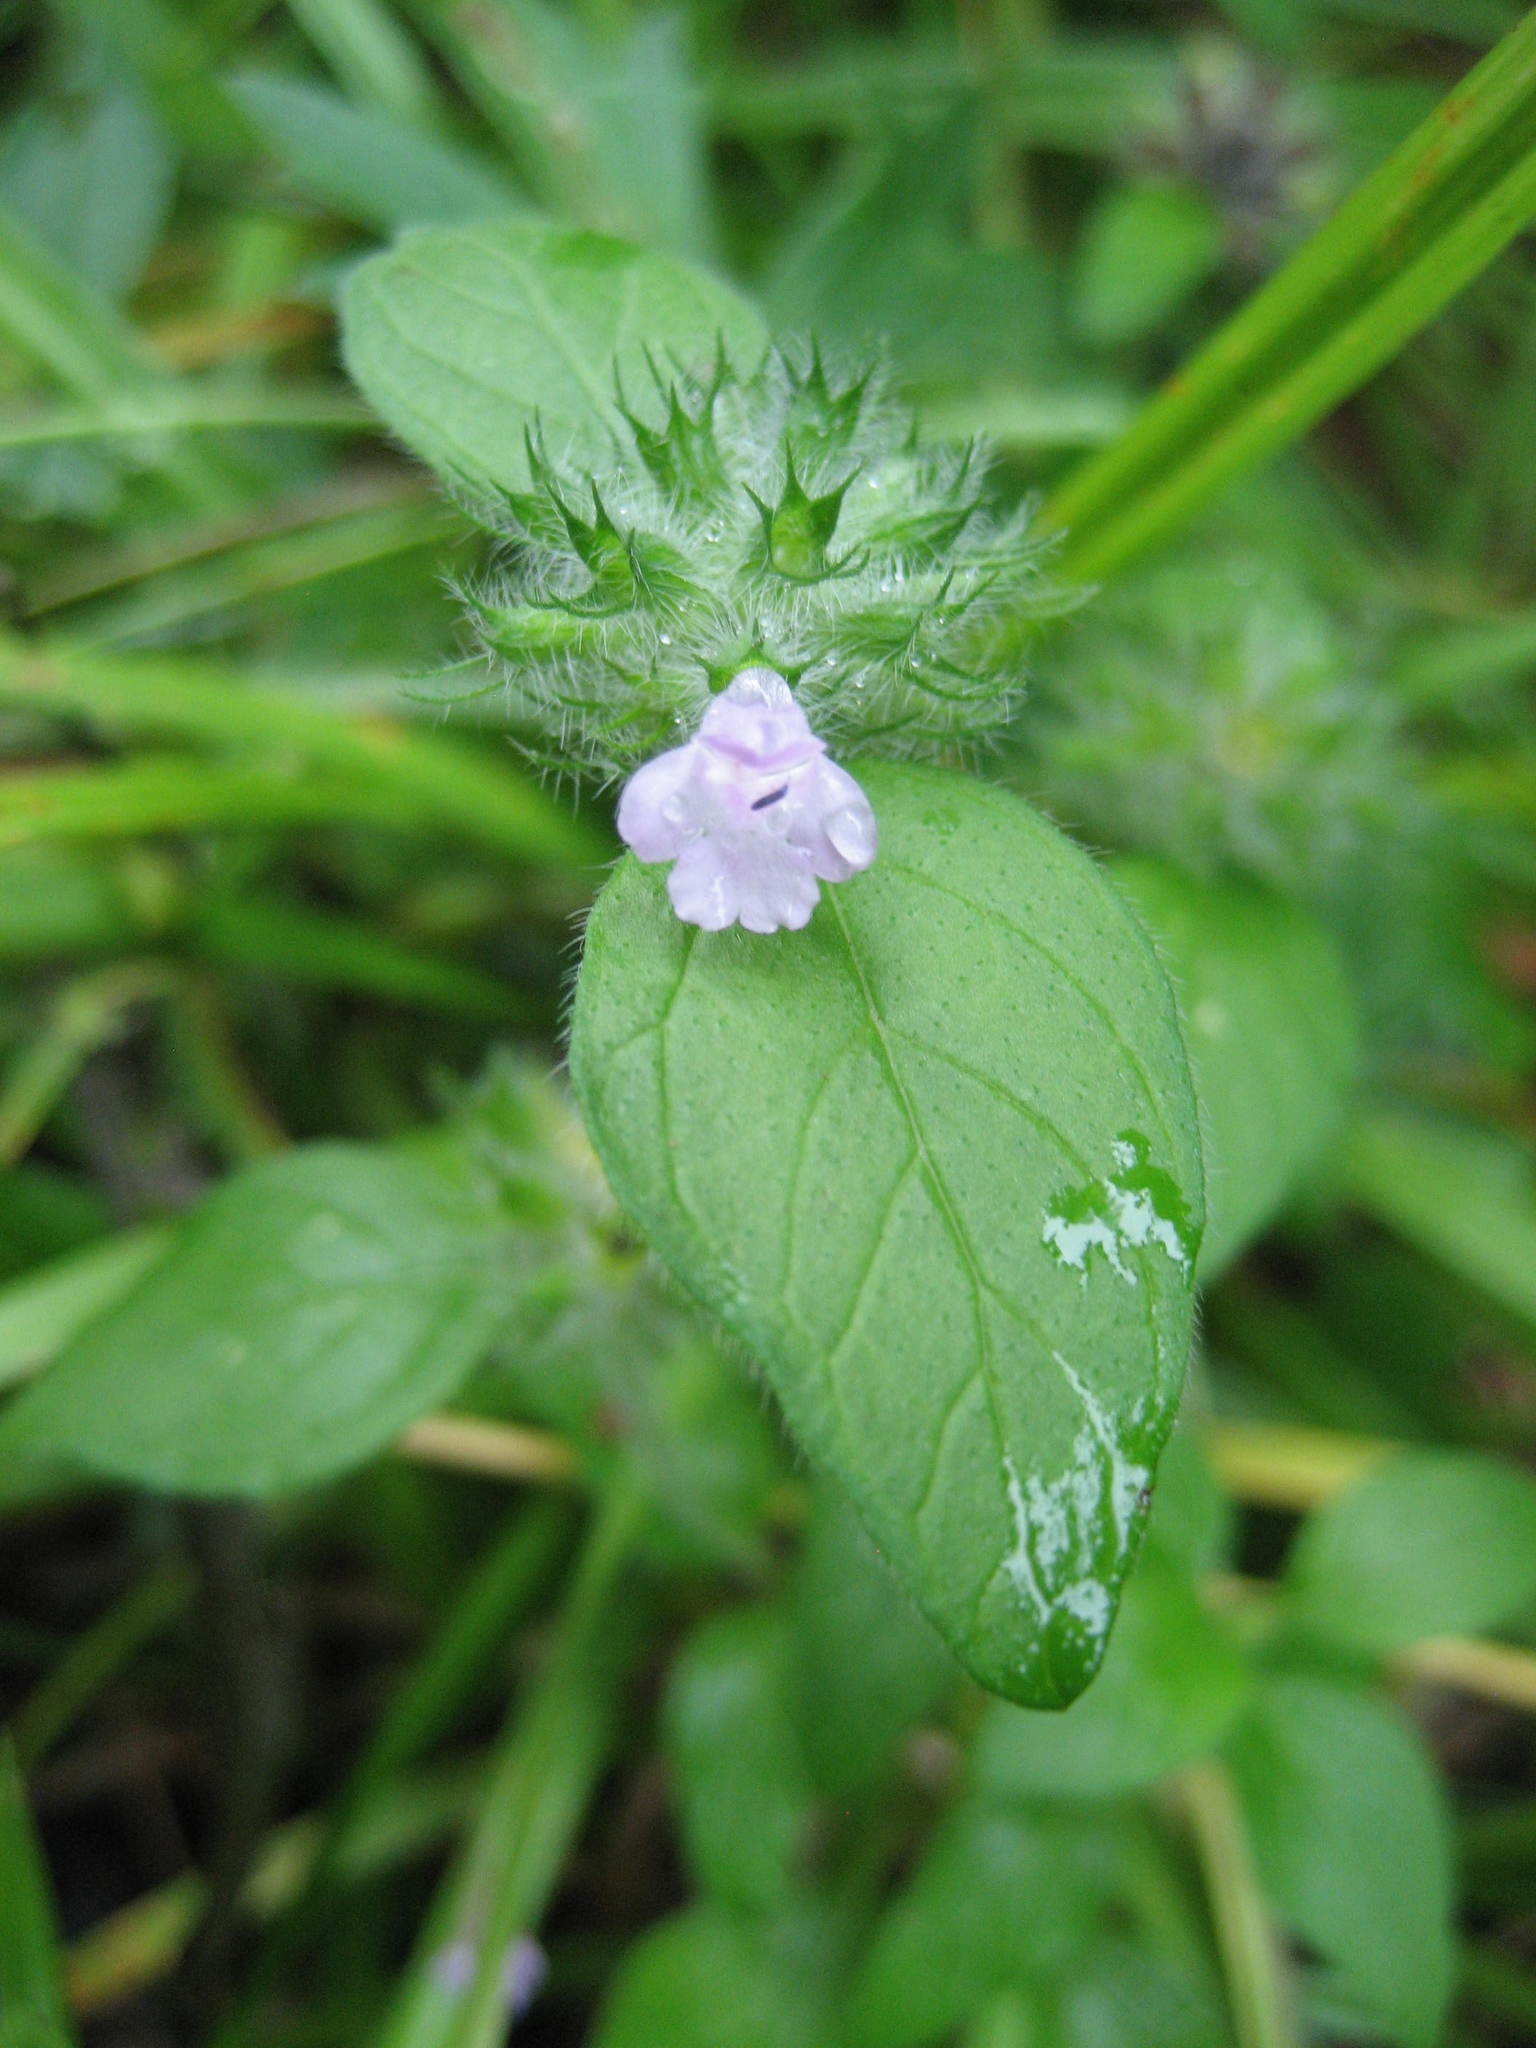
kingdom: Plantae
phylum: Tracheophyta
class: Magnoliopsida
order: Lamiales
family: Lamiaceae
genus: Clinopodium
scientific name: Clinopodium vulgare
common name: Wild basil
